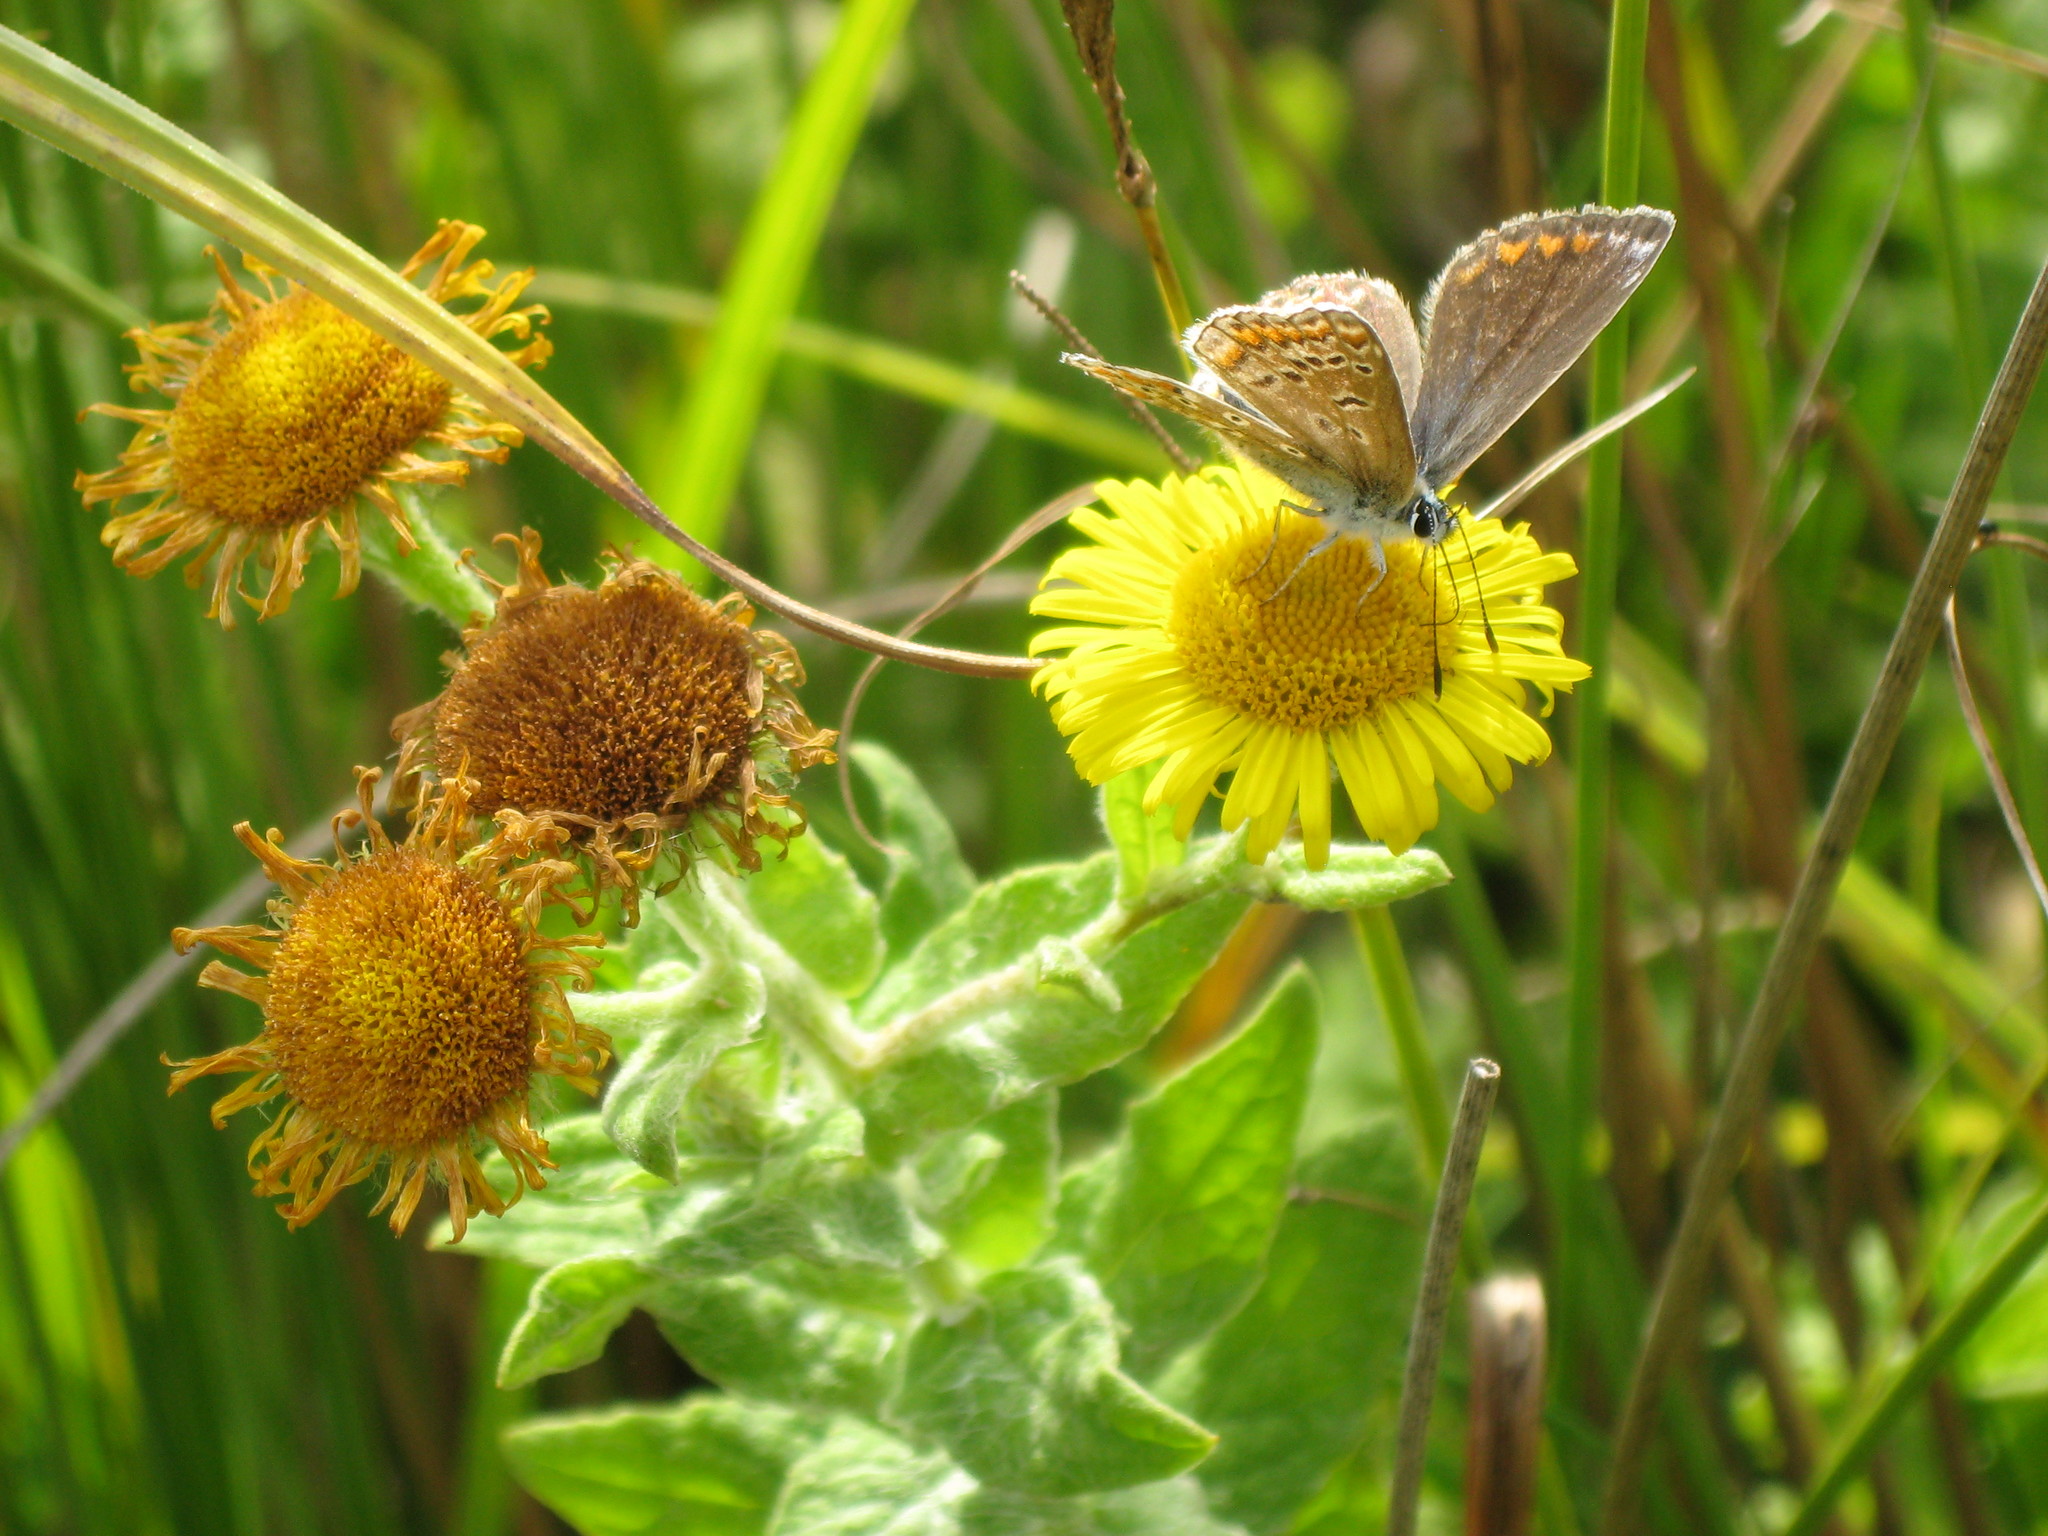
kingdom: Animalia
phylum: Arthropoda
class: Insecta
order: Lepidoptera
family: Lycaenidae
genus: Polyommatus
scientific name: Polyommatus icarus
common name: Common blue
